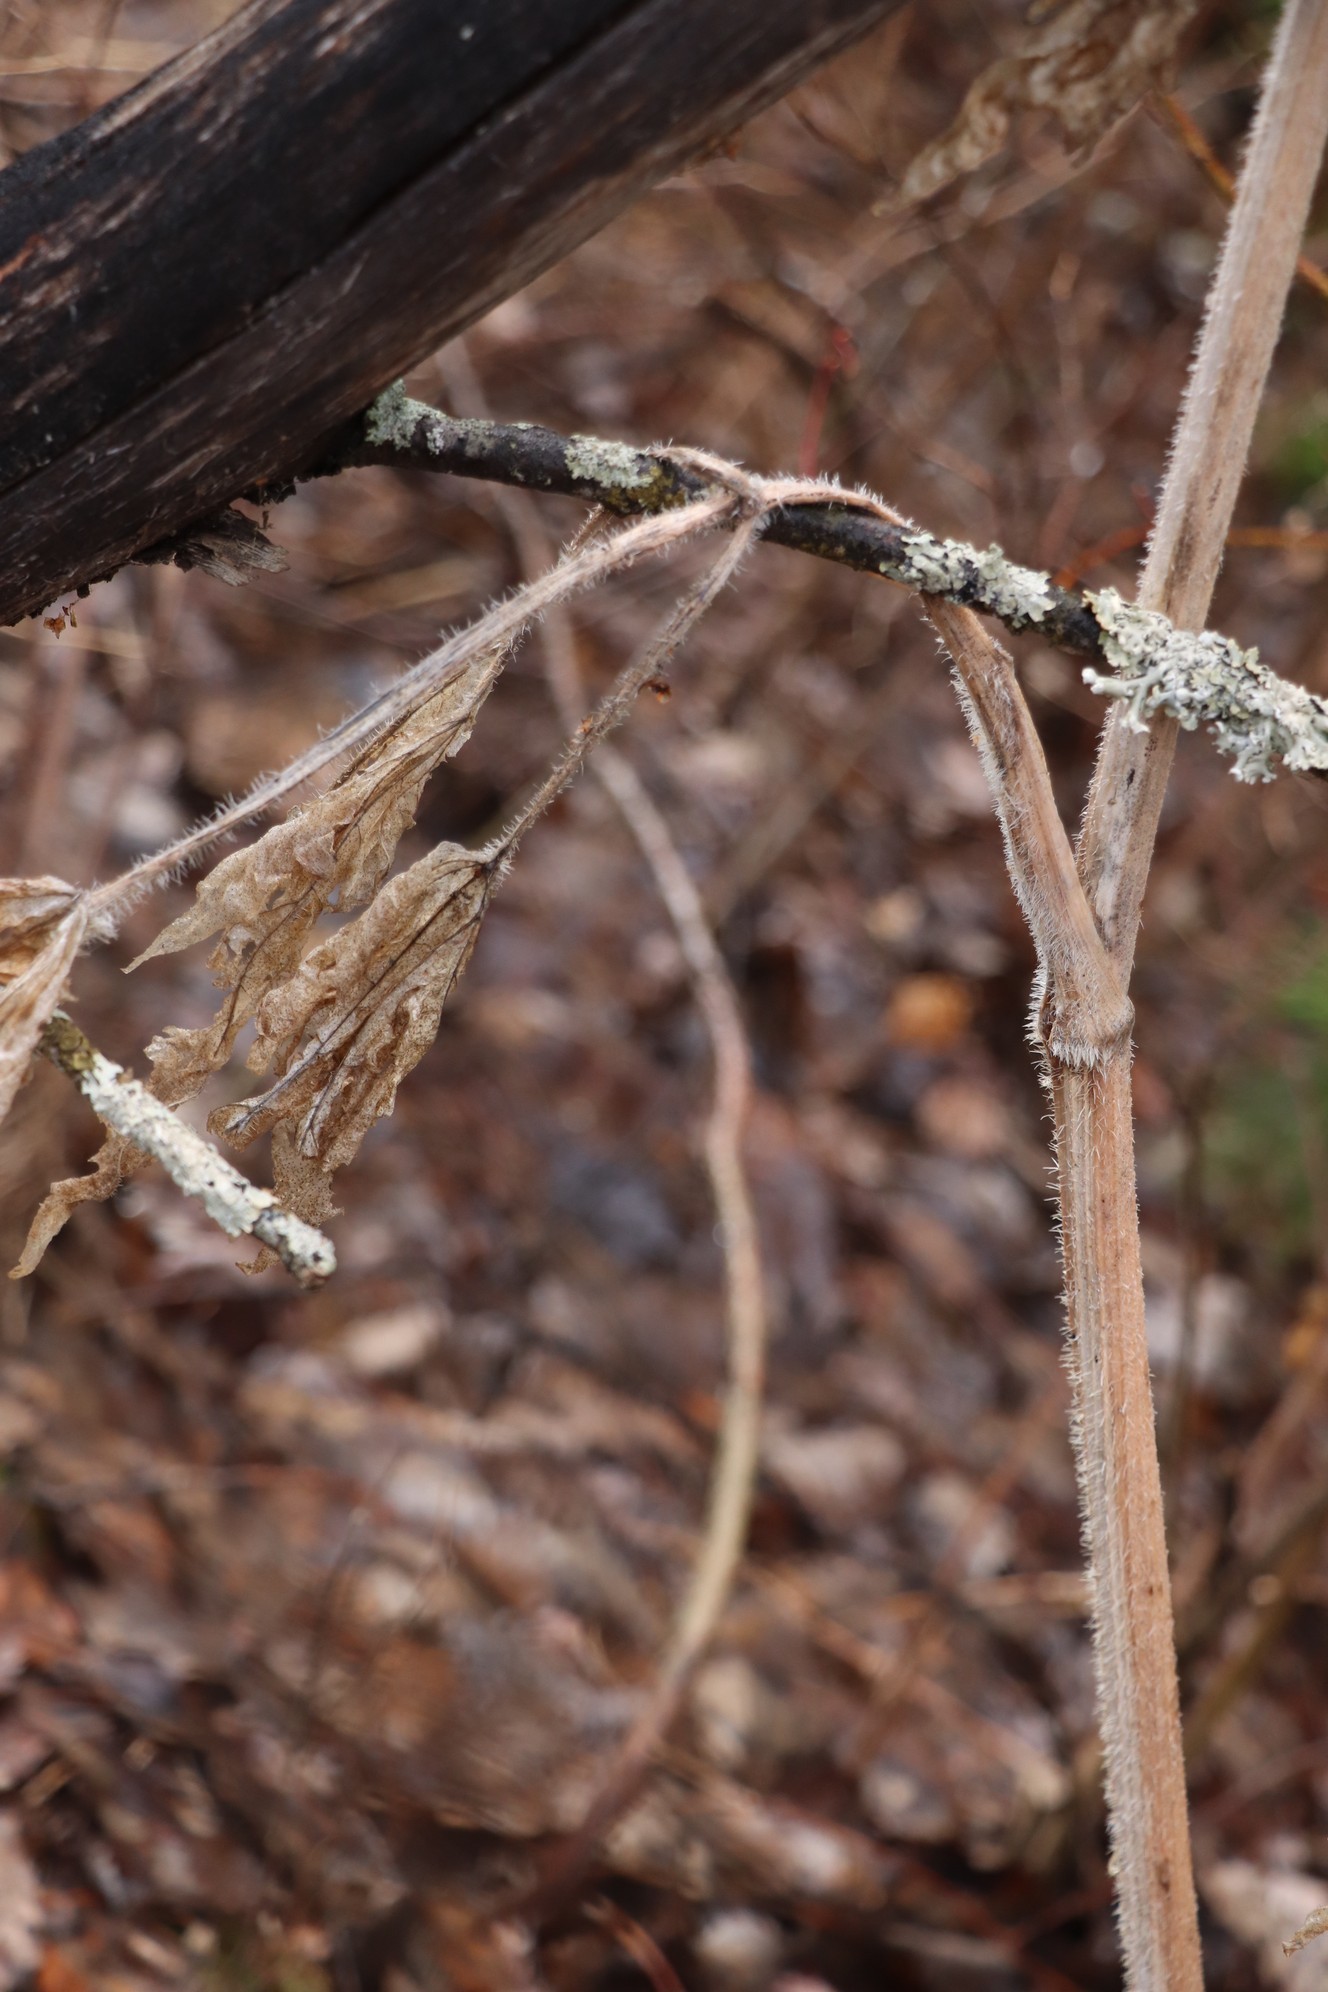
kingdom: Plantae
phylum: Tracheophyta
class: Magnoliopsida
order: Apiales
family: Apiaceae
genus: Heracleum
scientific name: Heracleum sphondylium
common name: Hogweed
